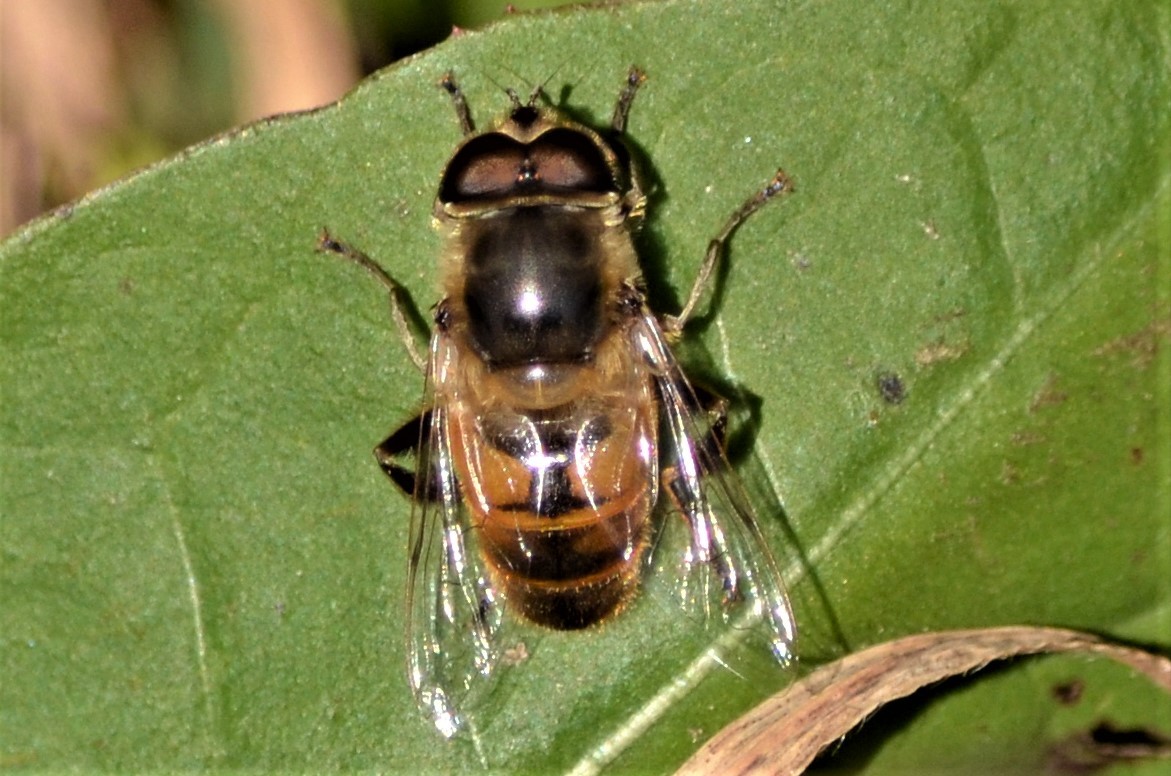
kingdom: Animalia
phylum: Arthropoda
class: Insecta
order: Diptera
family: Syrphidae
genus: Eristalis
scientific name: Eristalis tenax
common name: Drone fly
